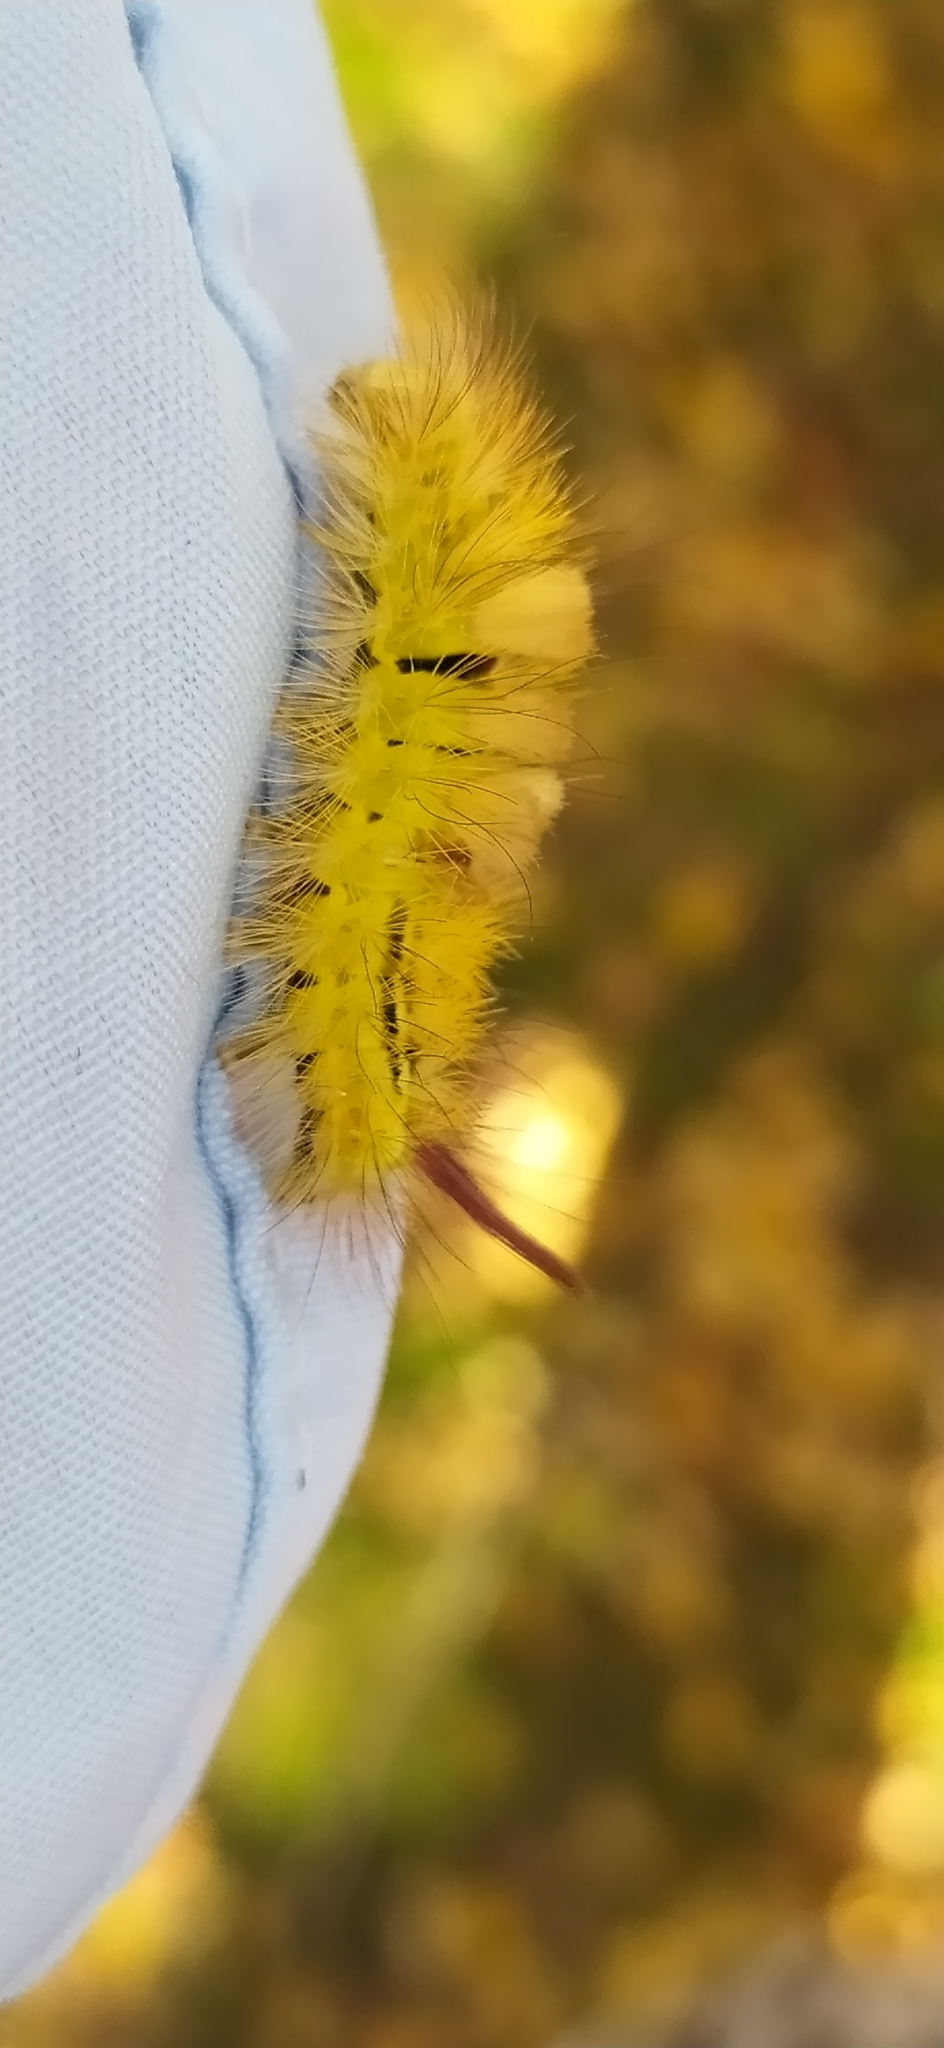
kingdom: Animalia
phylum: Arthropoda
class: Insecta
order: Lepidoptera
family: Erebidae
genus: Calliteara
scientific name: Calliteara pudibunda
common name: Pale tussock
